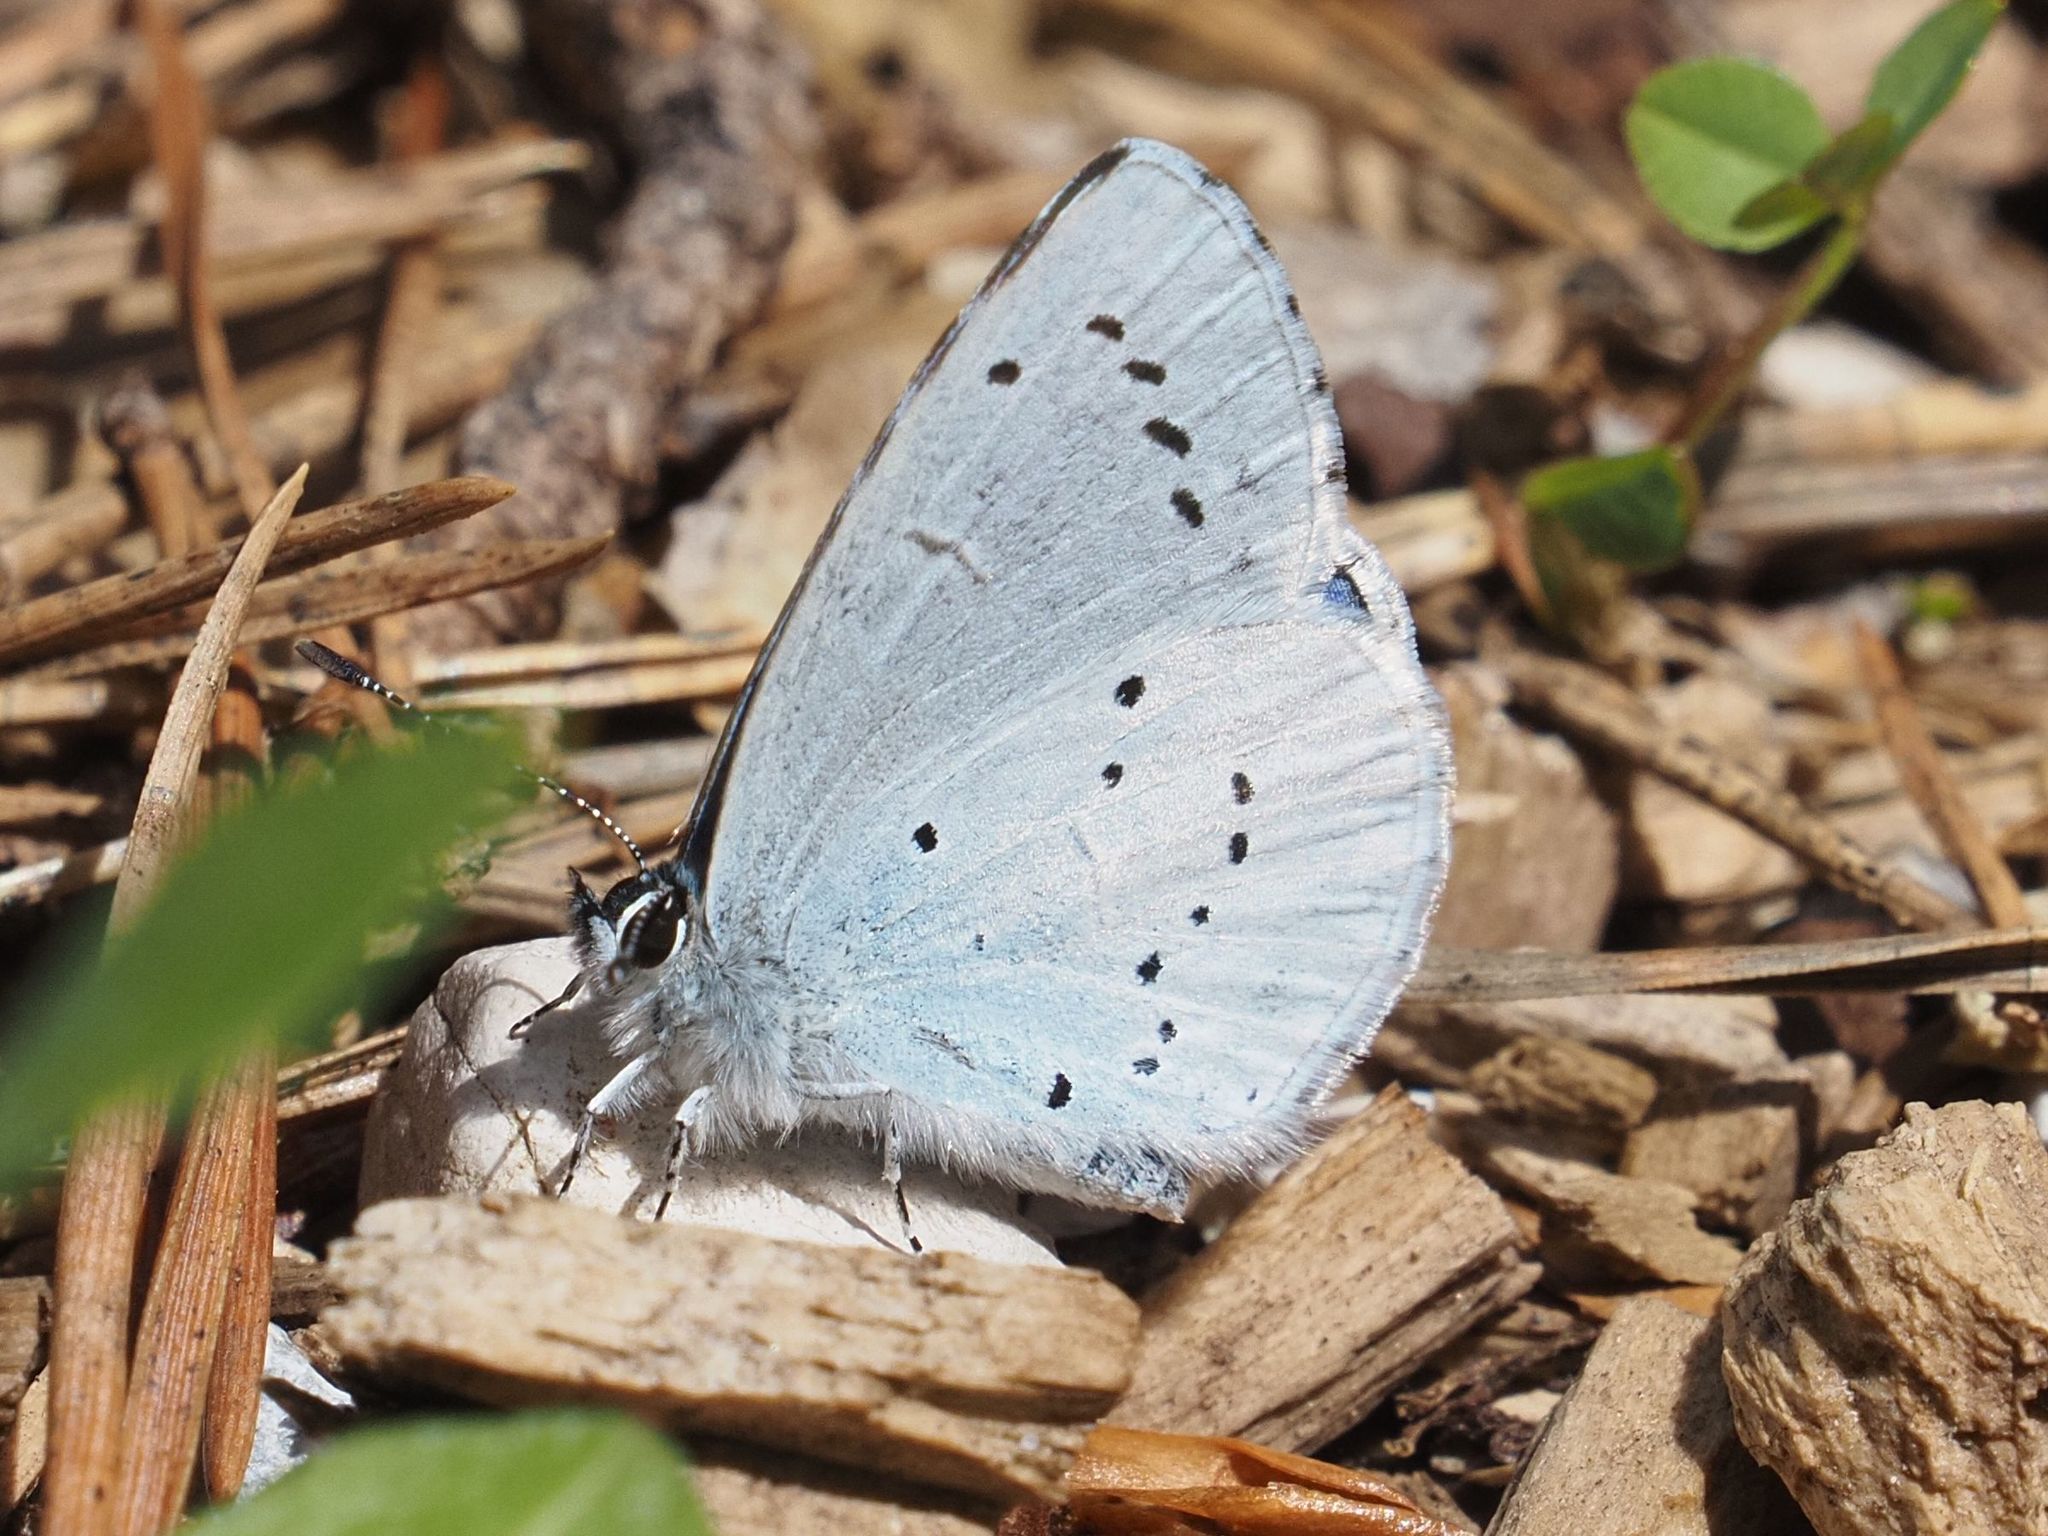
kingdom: Animalia
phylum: Arthropoda
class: Insecta
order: Lepidoptera
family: Lycaenidae
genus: Celastrina
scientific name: Celastrina argiolus
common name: Holly blue
